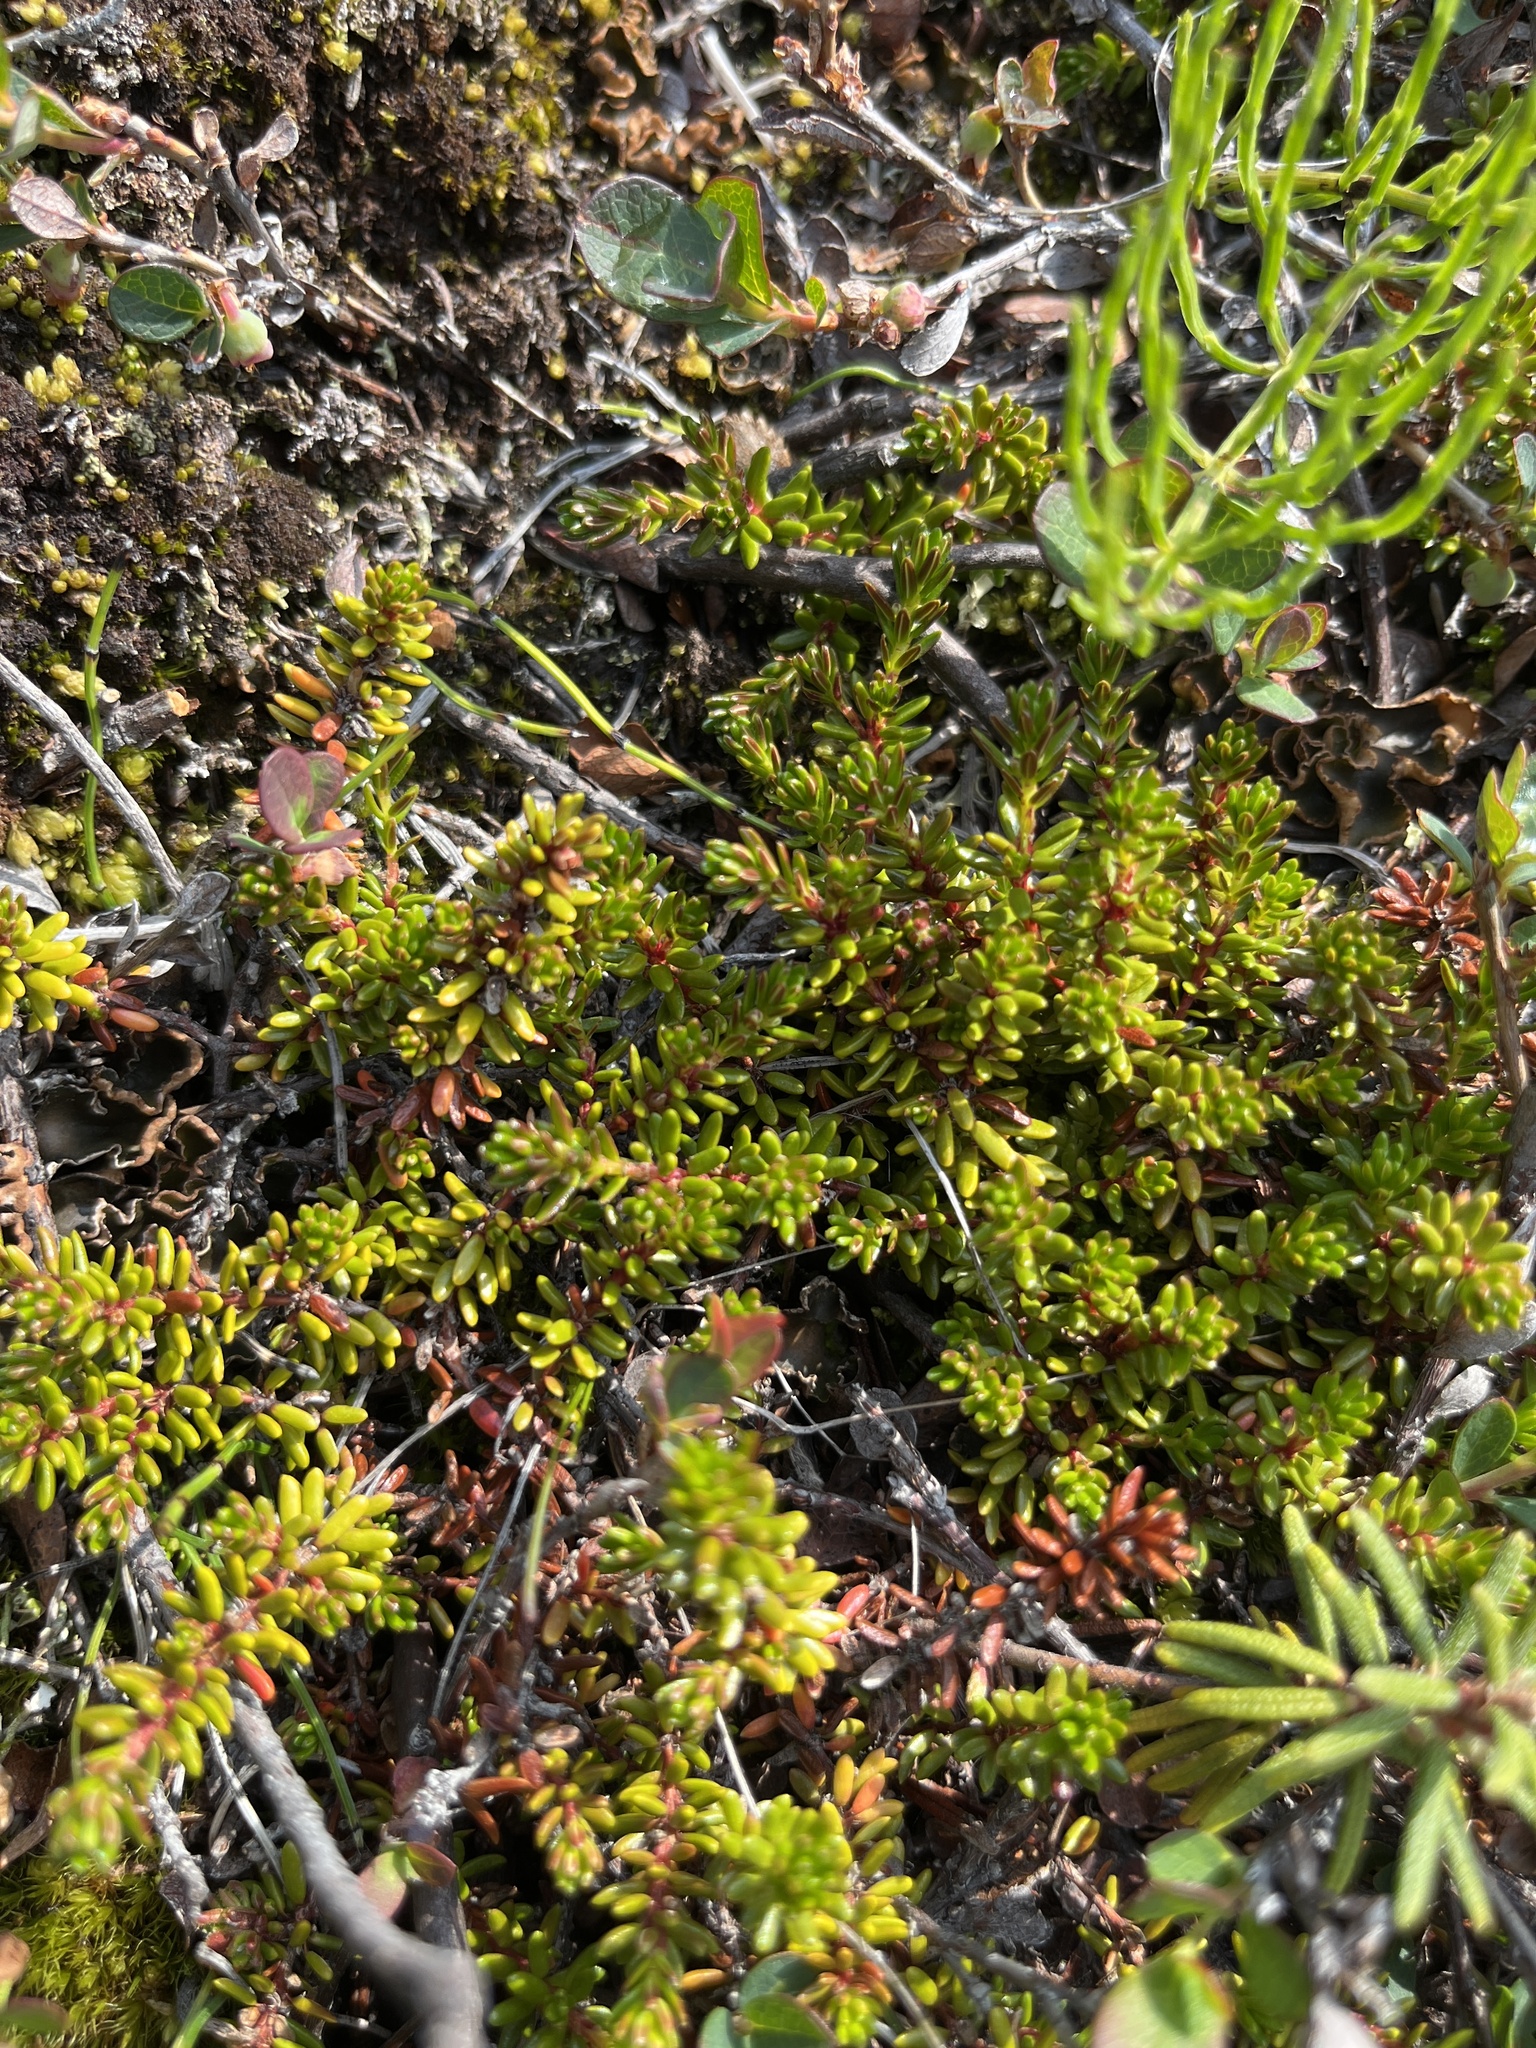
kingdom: Plantae
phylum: Tracheophyta
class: Magnoliopsida
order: Ericales
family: Ericaceae
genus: Empetrum
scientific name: Empetrum hermaphroditum
